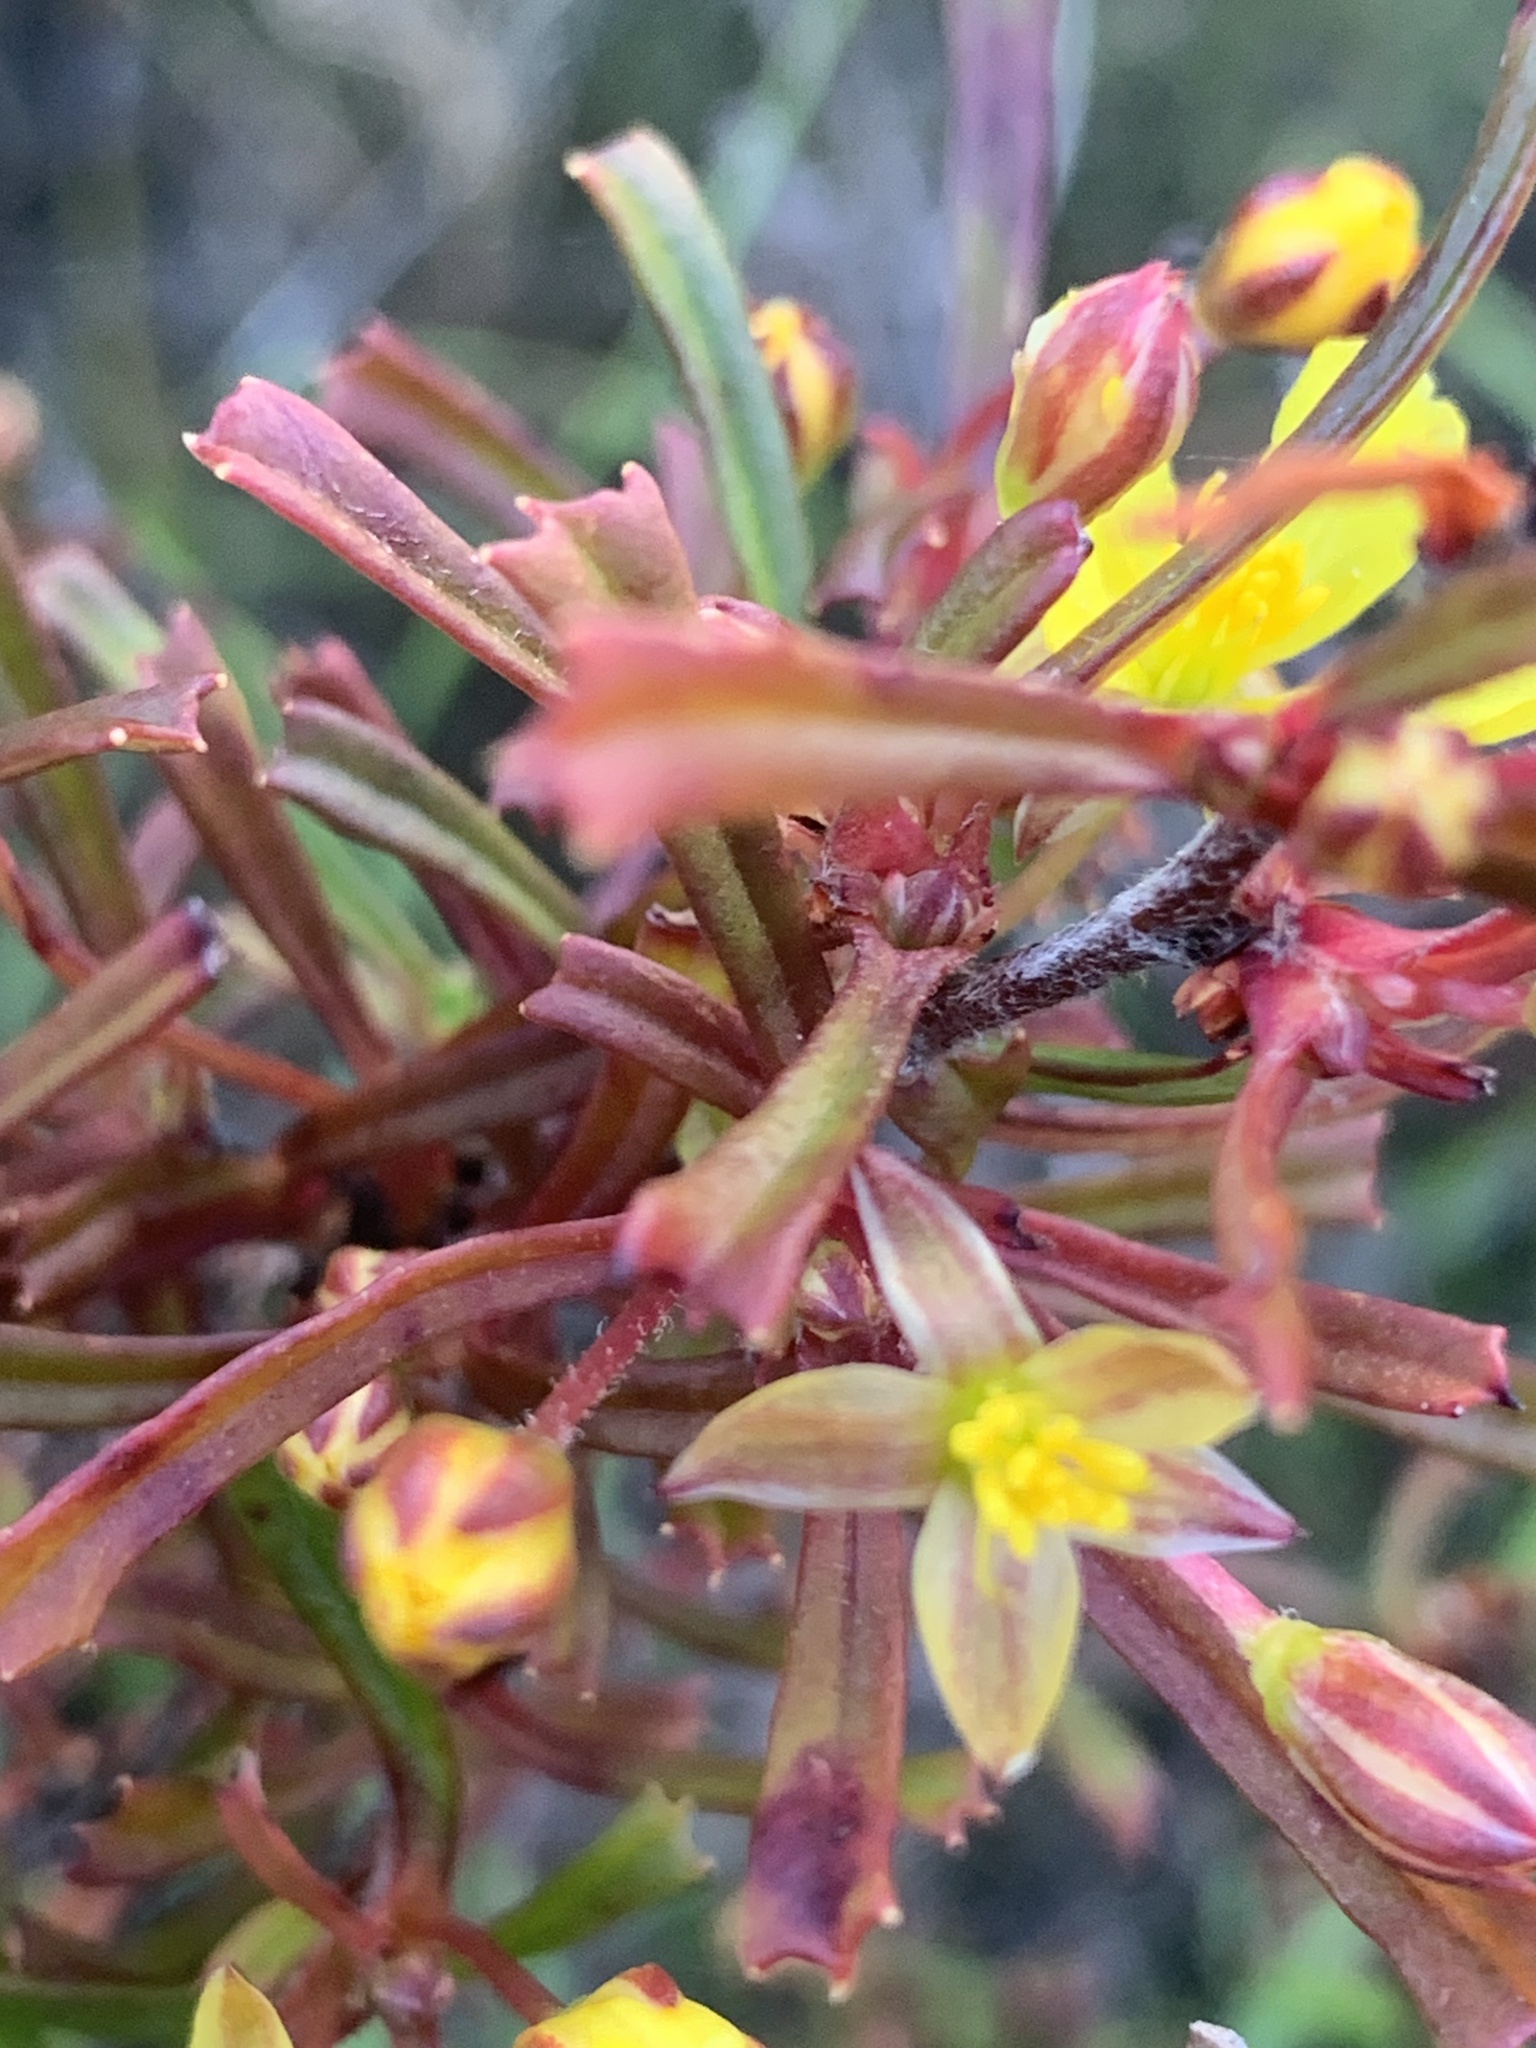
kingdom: Plantae
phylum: Tracheophyta
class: Magnoliopsida
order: Dilleniales
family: Dilleniaceae
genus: Hibbertia
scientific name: Hibbertia racemosa
